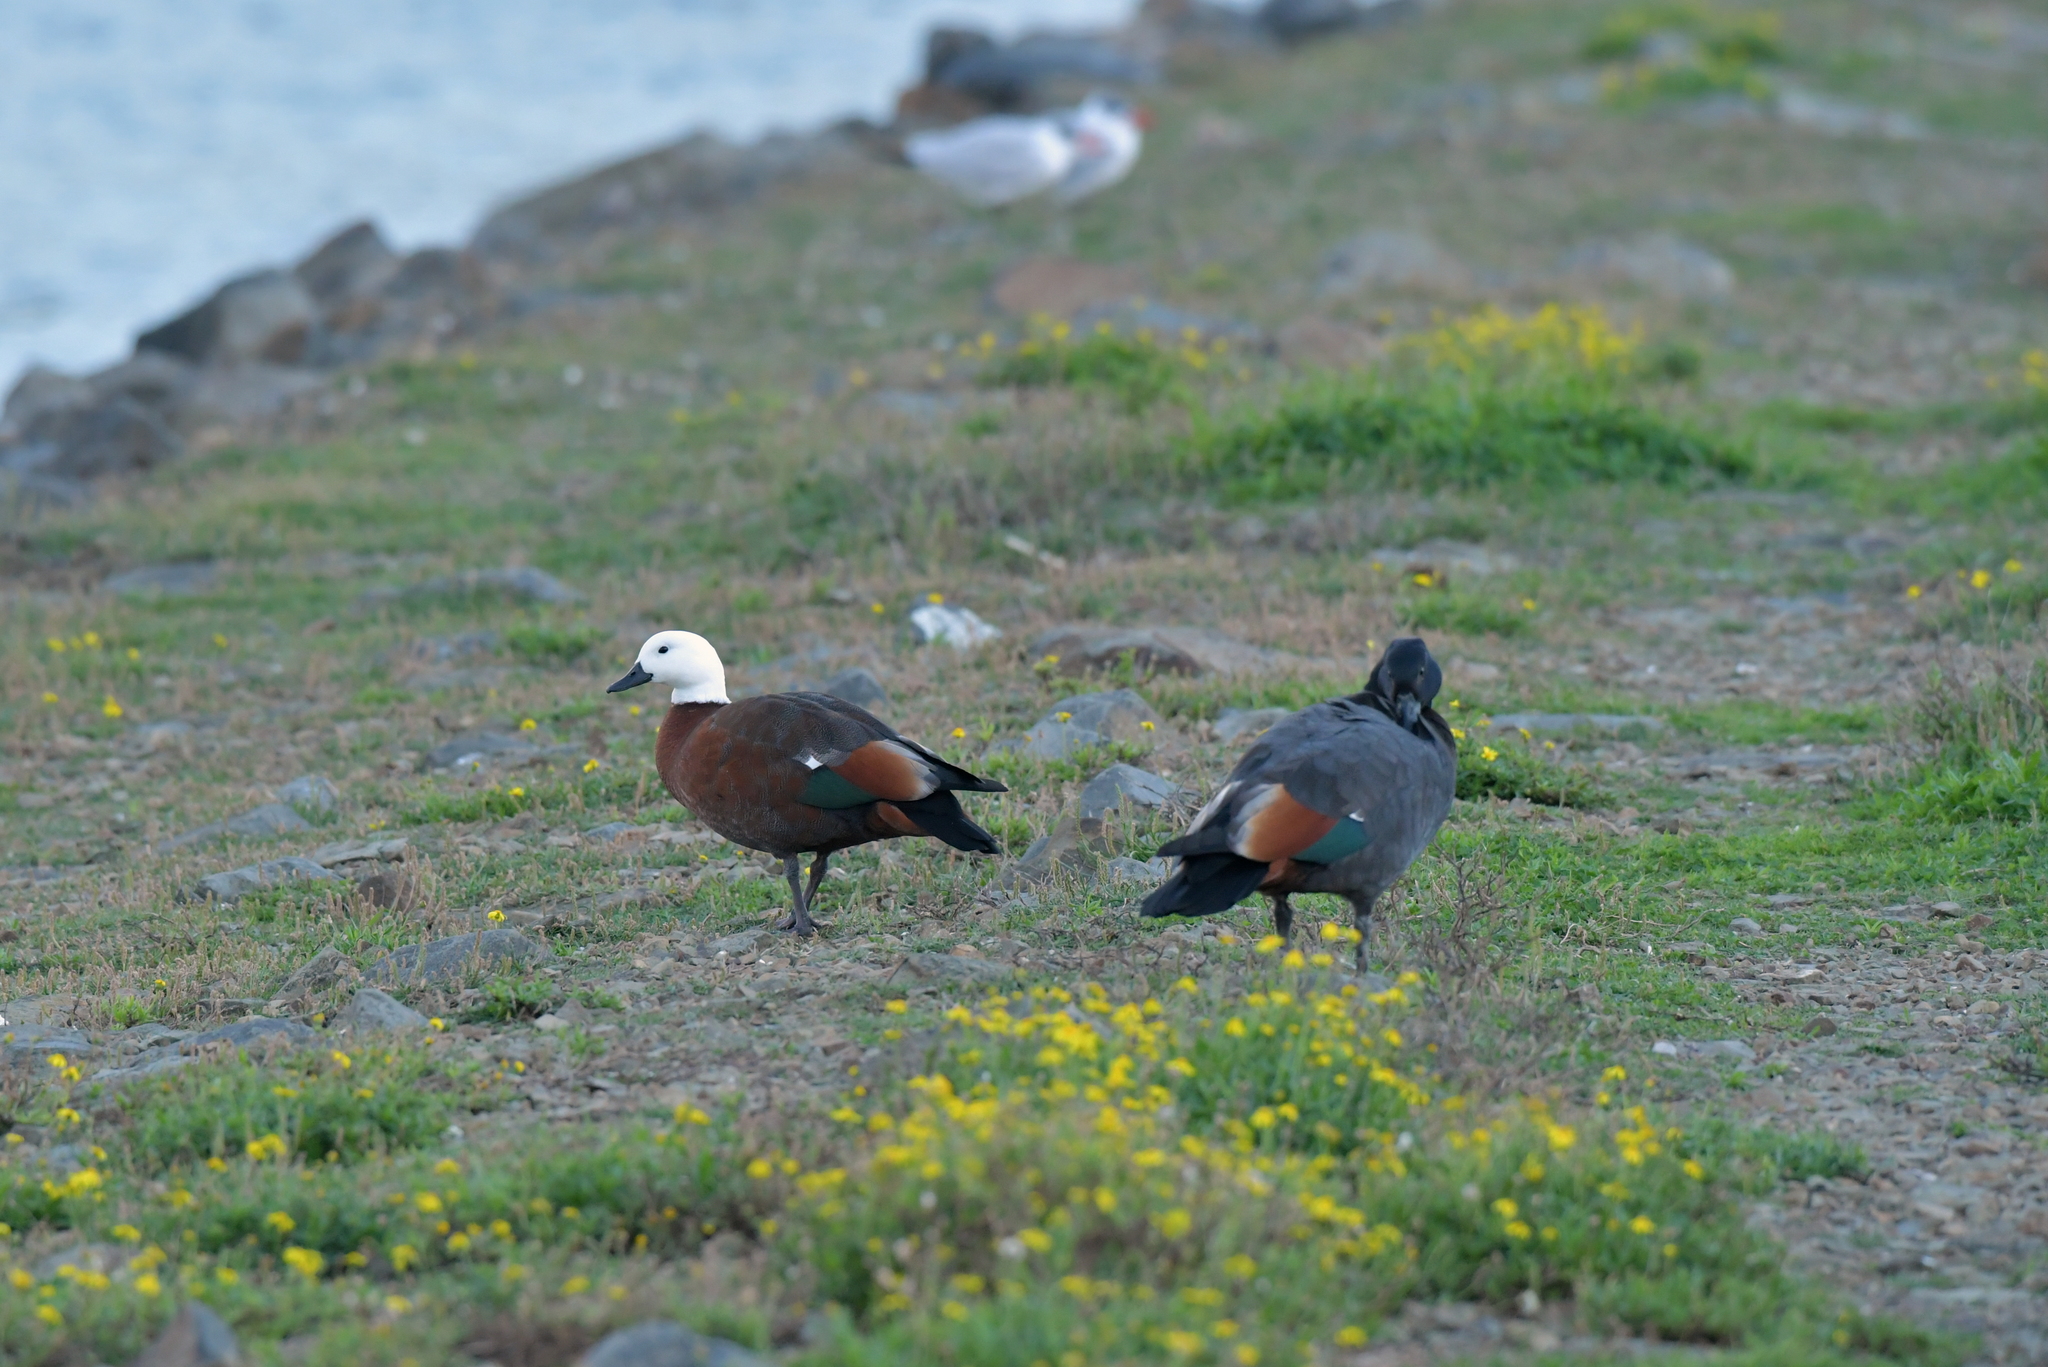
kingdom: Animalia
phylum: Chordata
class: Aves
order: Anseriformes
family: Anatidae
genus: Tadorna
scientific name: Tadorna variegata
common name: Paradise shelduck
